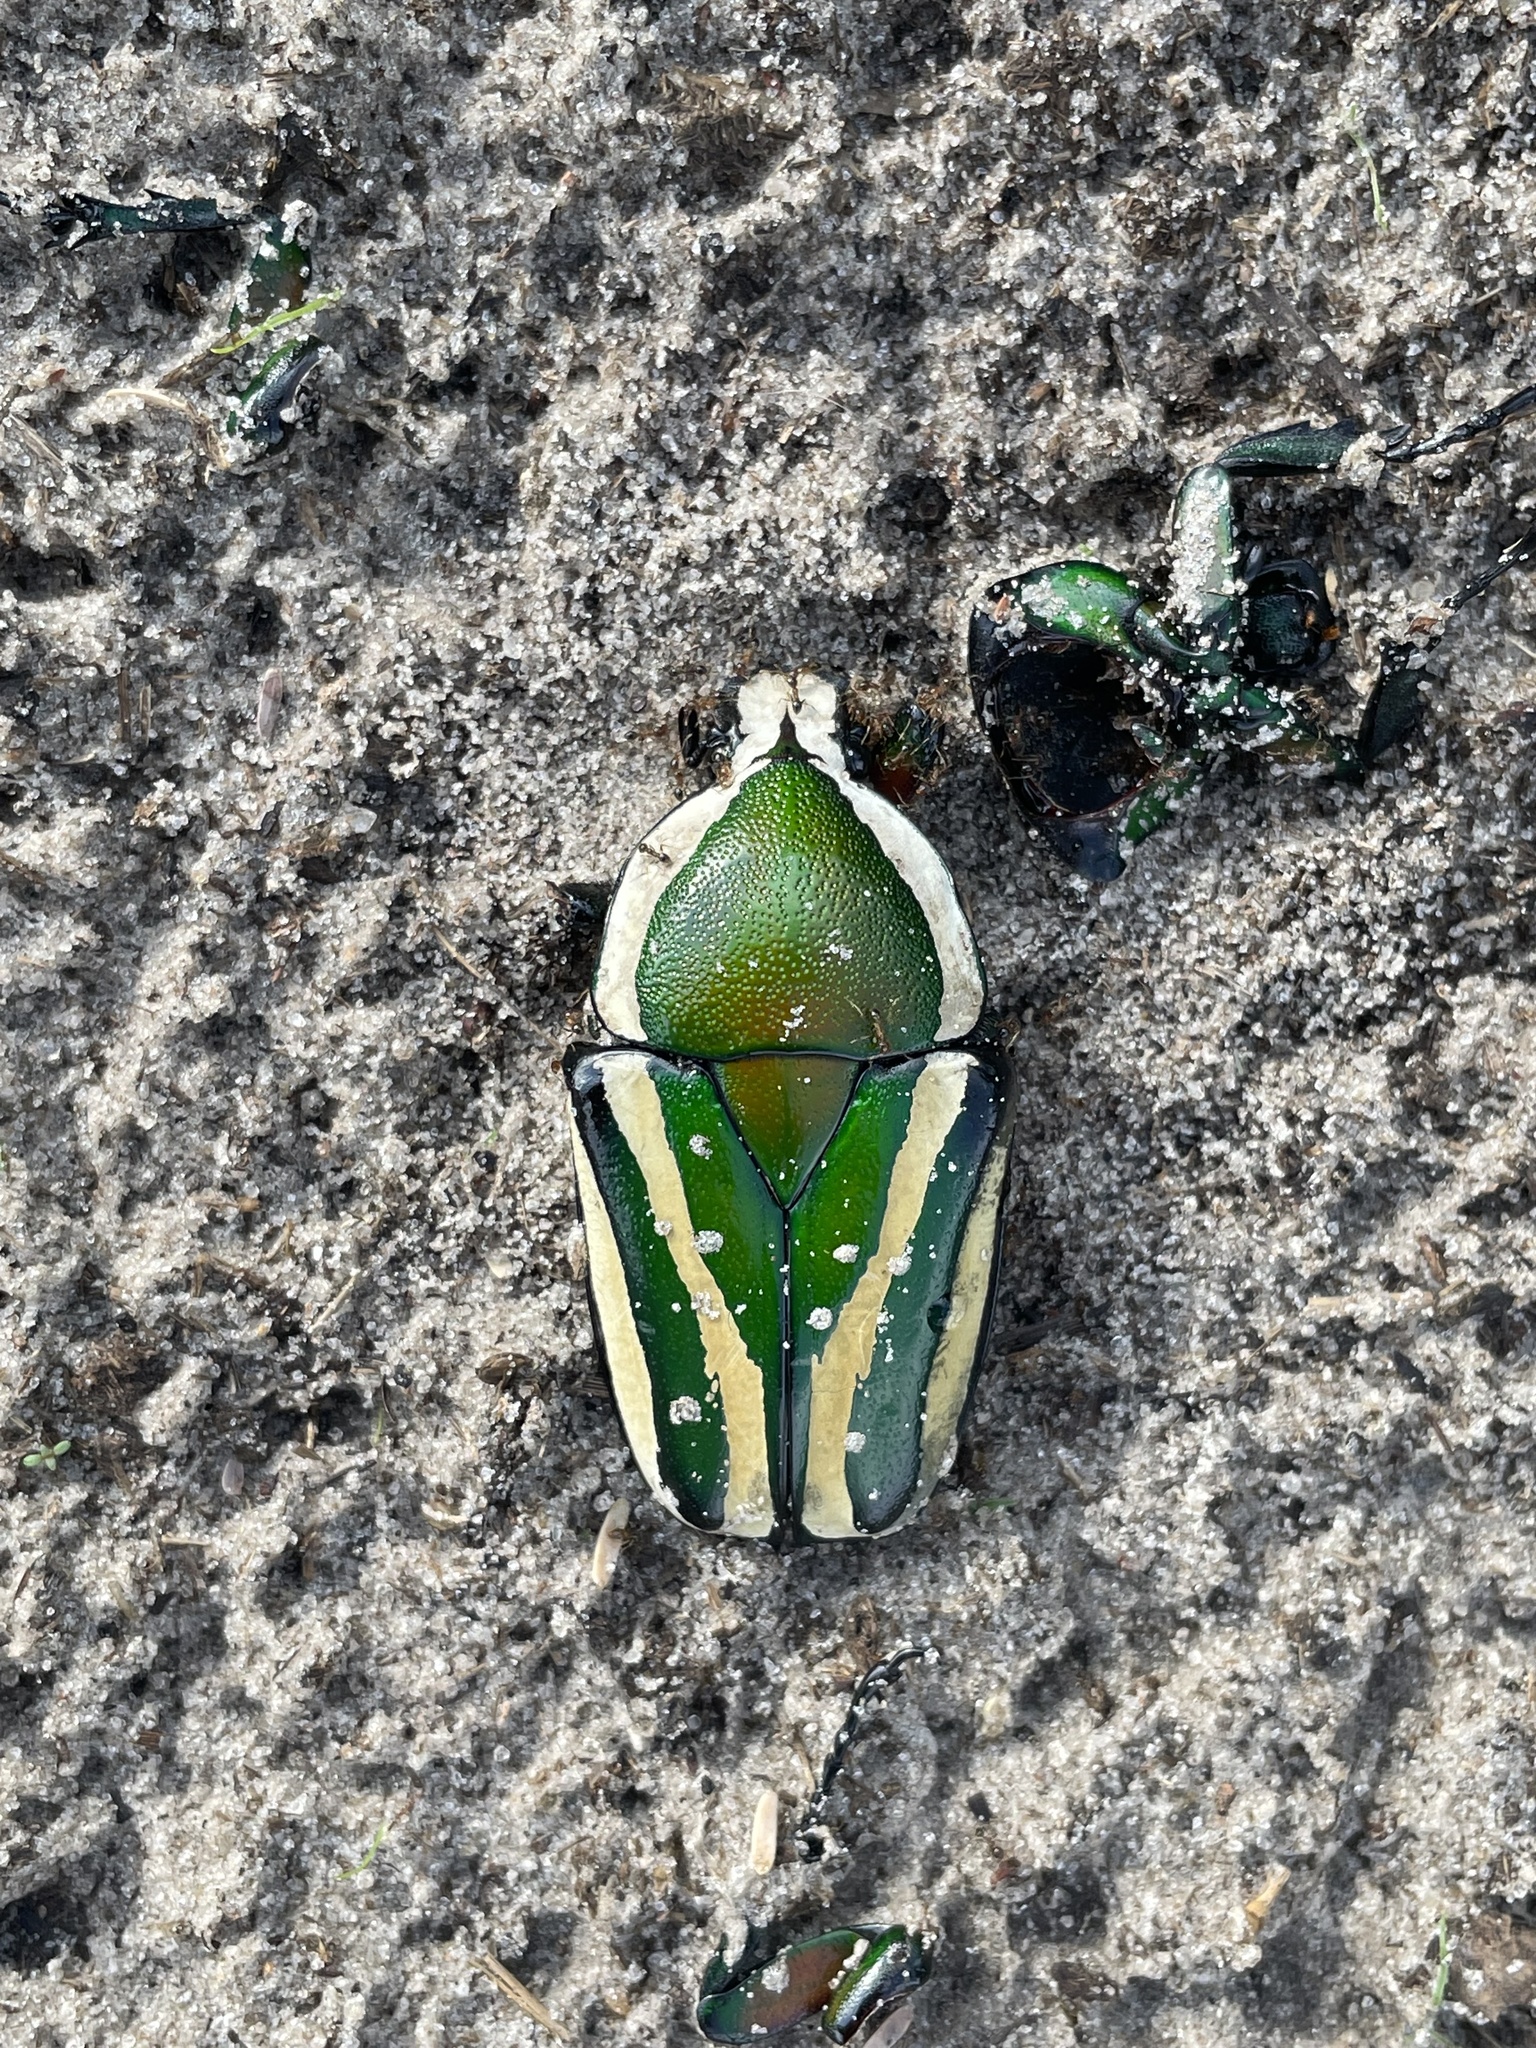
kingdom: Animalia
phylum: Arthropoda
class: Insecta
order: Coleoptera
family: Scarabaeidae
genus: Dicronorhina
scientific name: Dicronorhina derbyana
